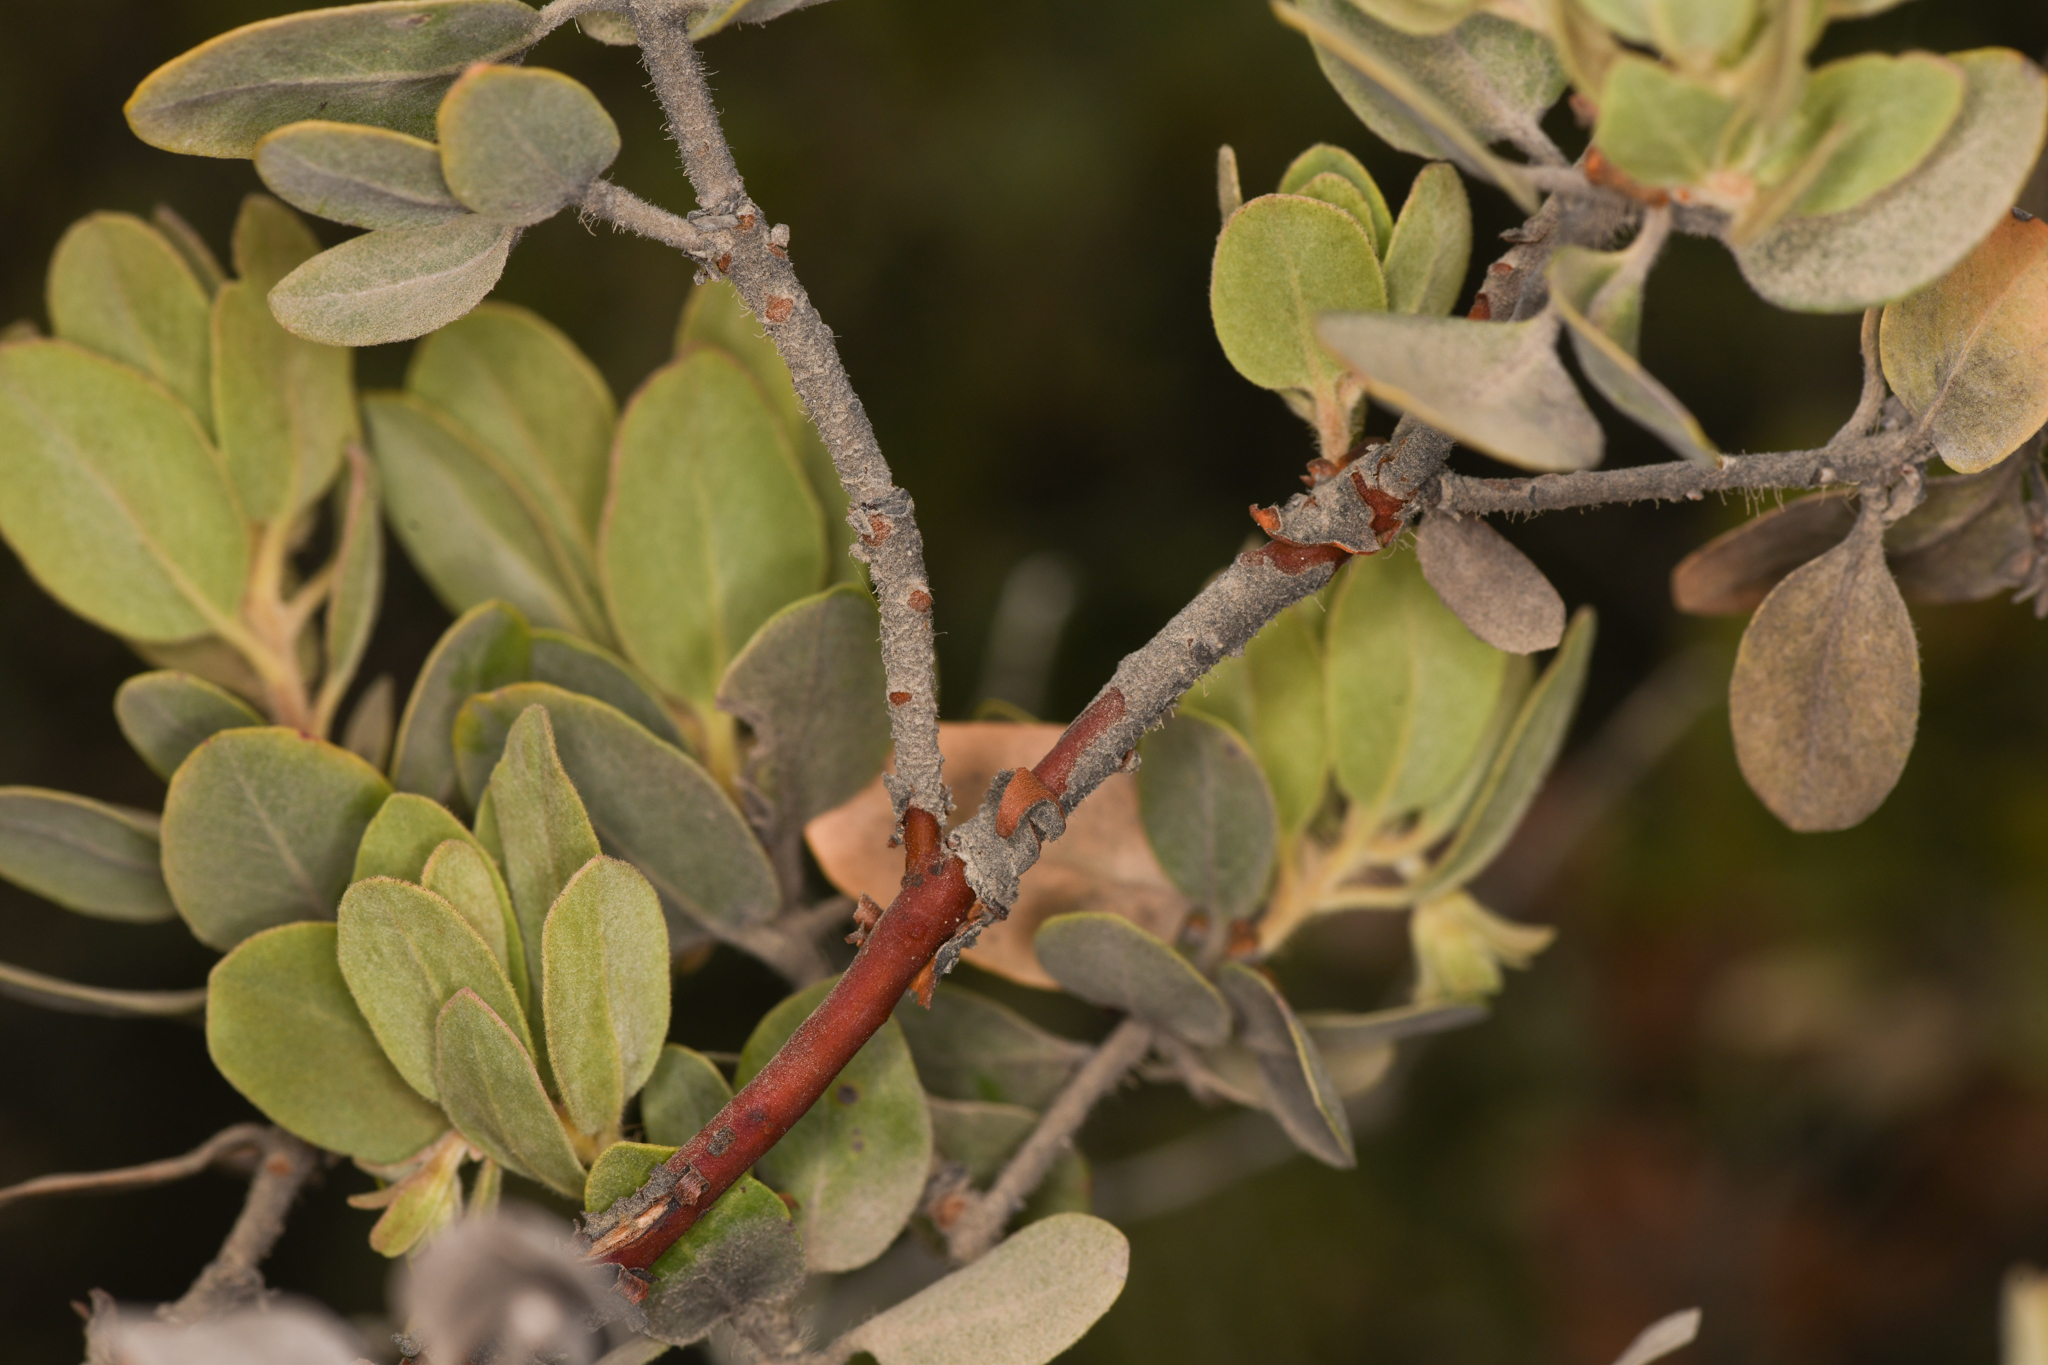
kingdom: Plantae
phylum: Tracheophyta
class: Magnoliopsida
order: Ericales
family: Ericaceae
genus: Arctostaphylos
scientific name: Arctostaphylos nortensis
